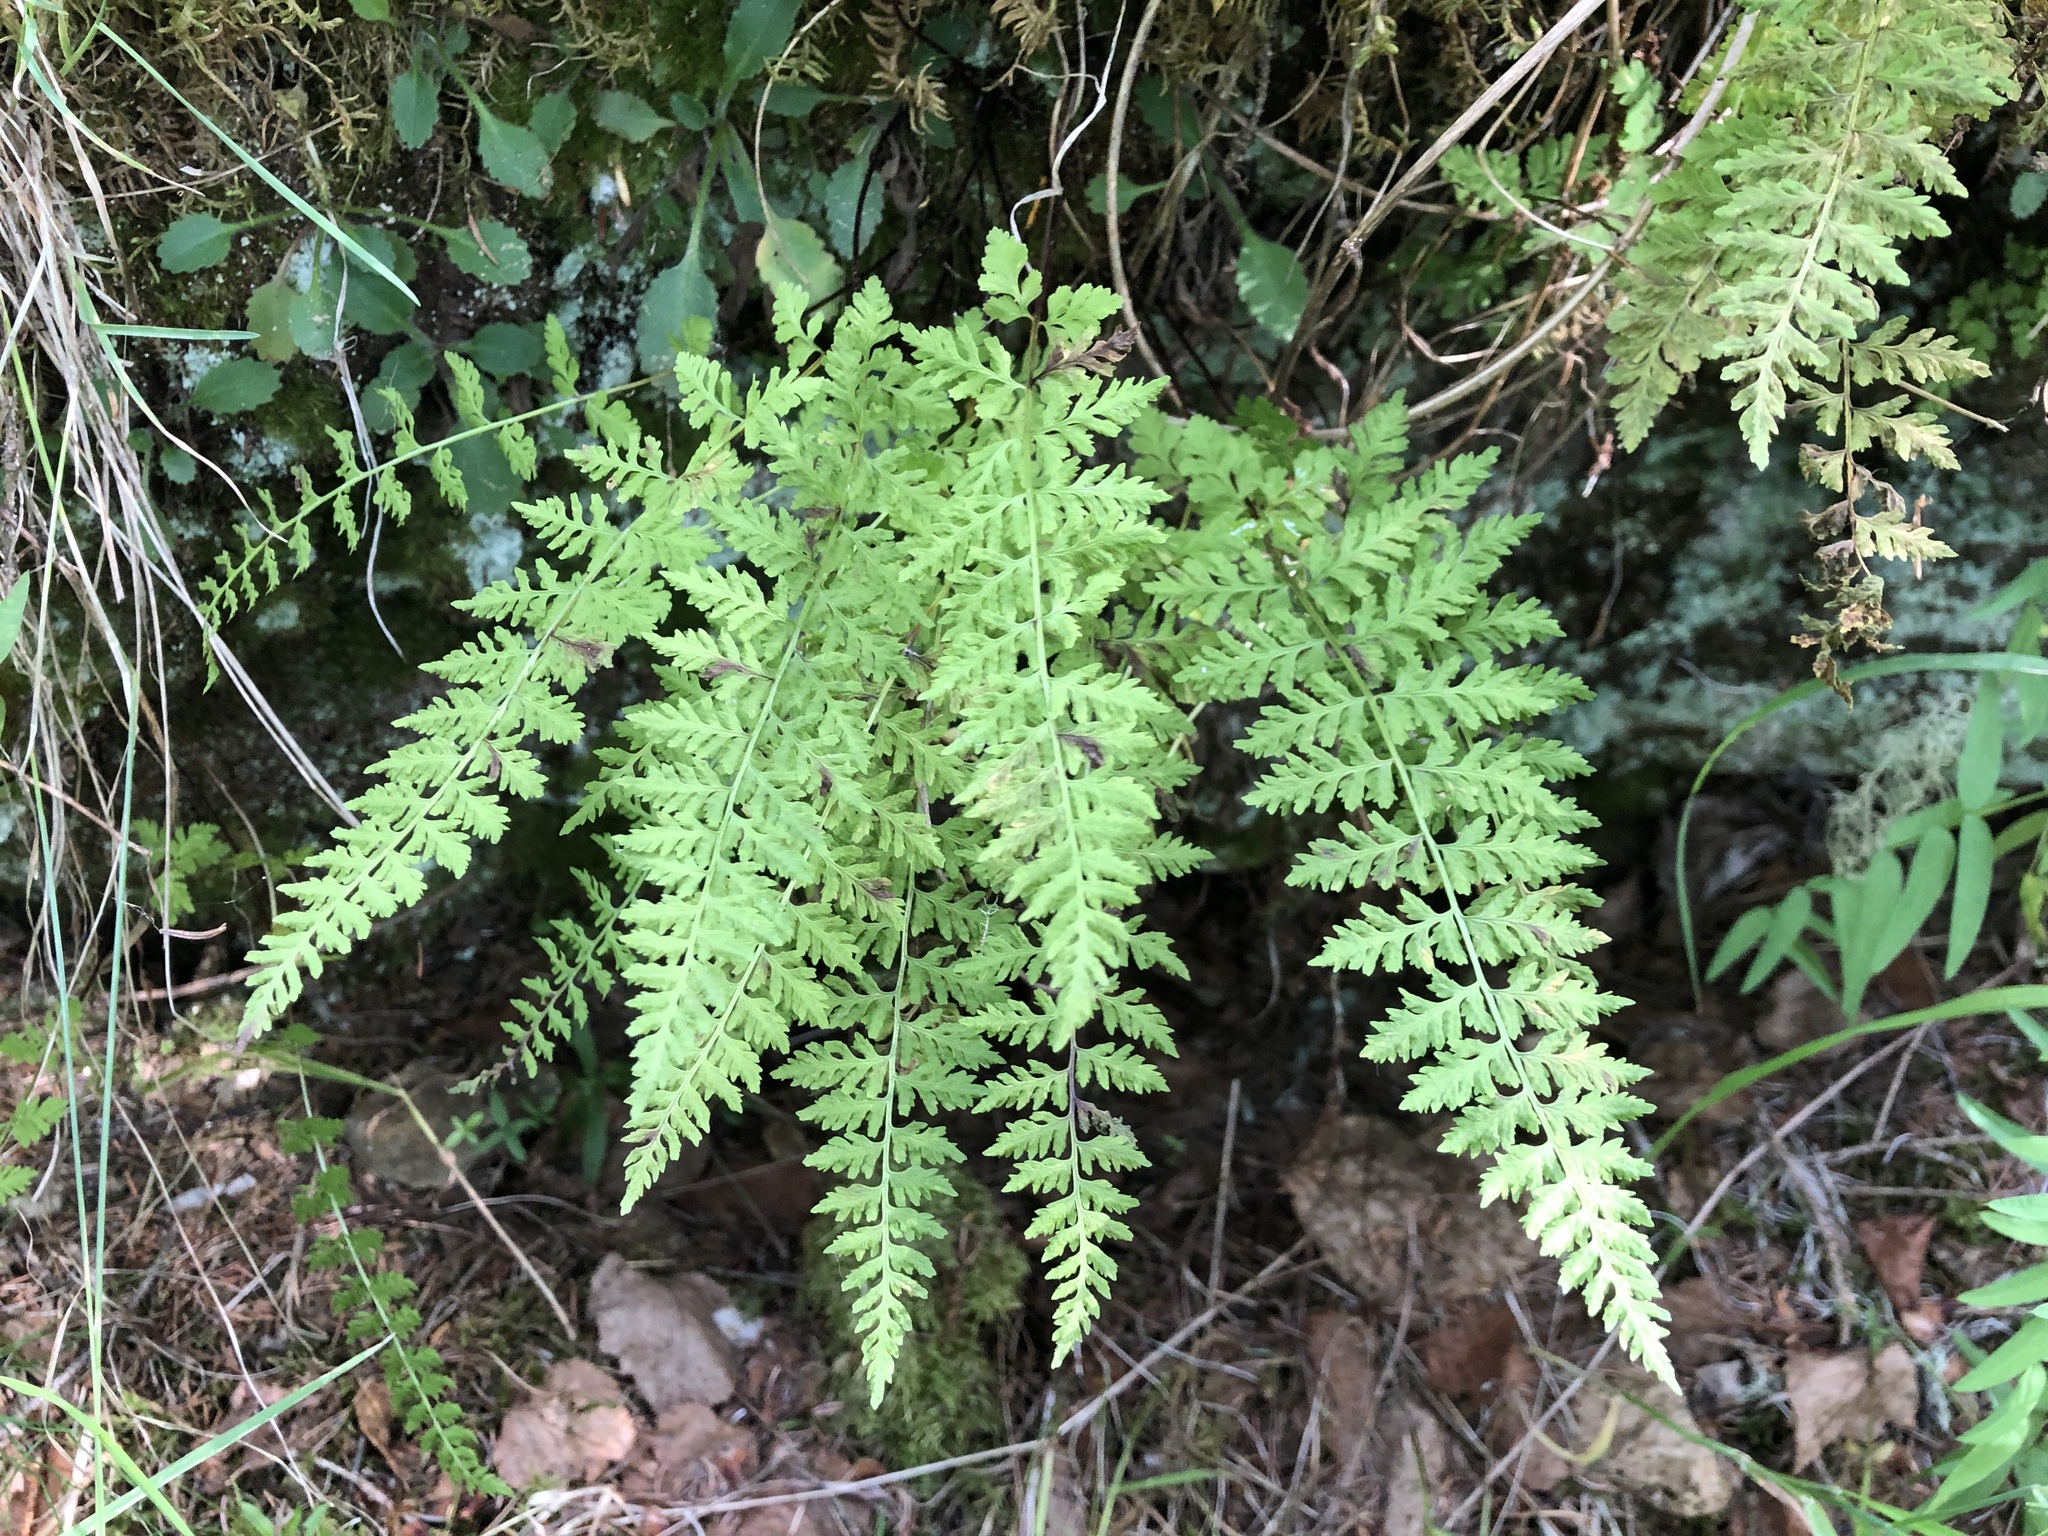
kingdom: Plantae
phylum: Tracheophyta
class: Polypodiopsida
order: Polypodiales
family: Cystopteridaceae
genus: Cystopteris
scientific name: Cystopteris fragilis
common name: Brittle bladder fern
